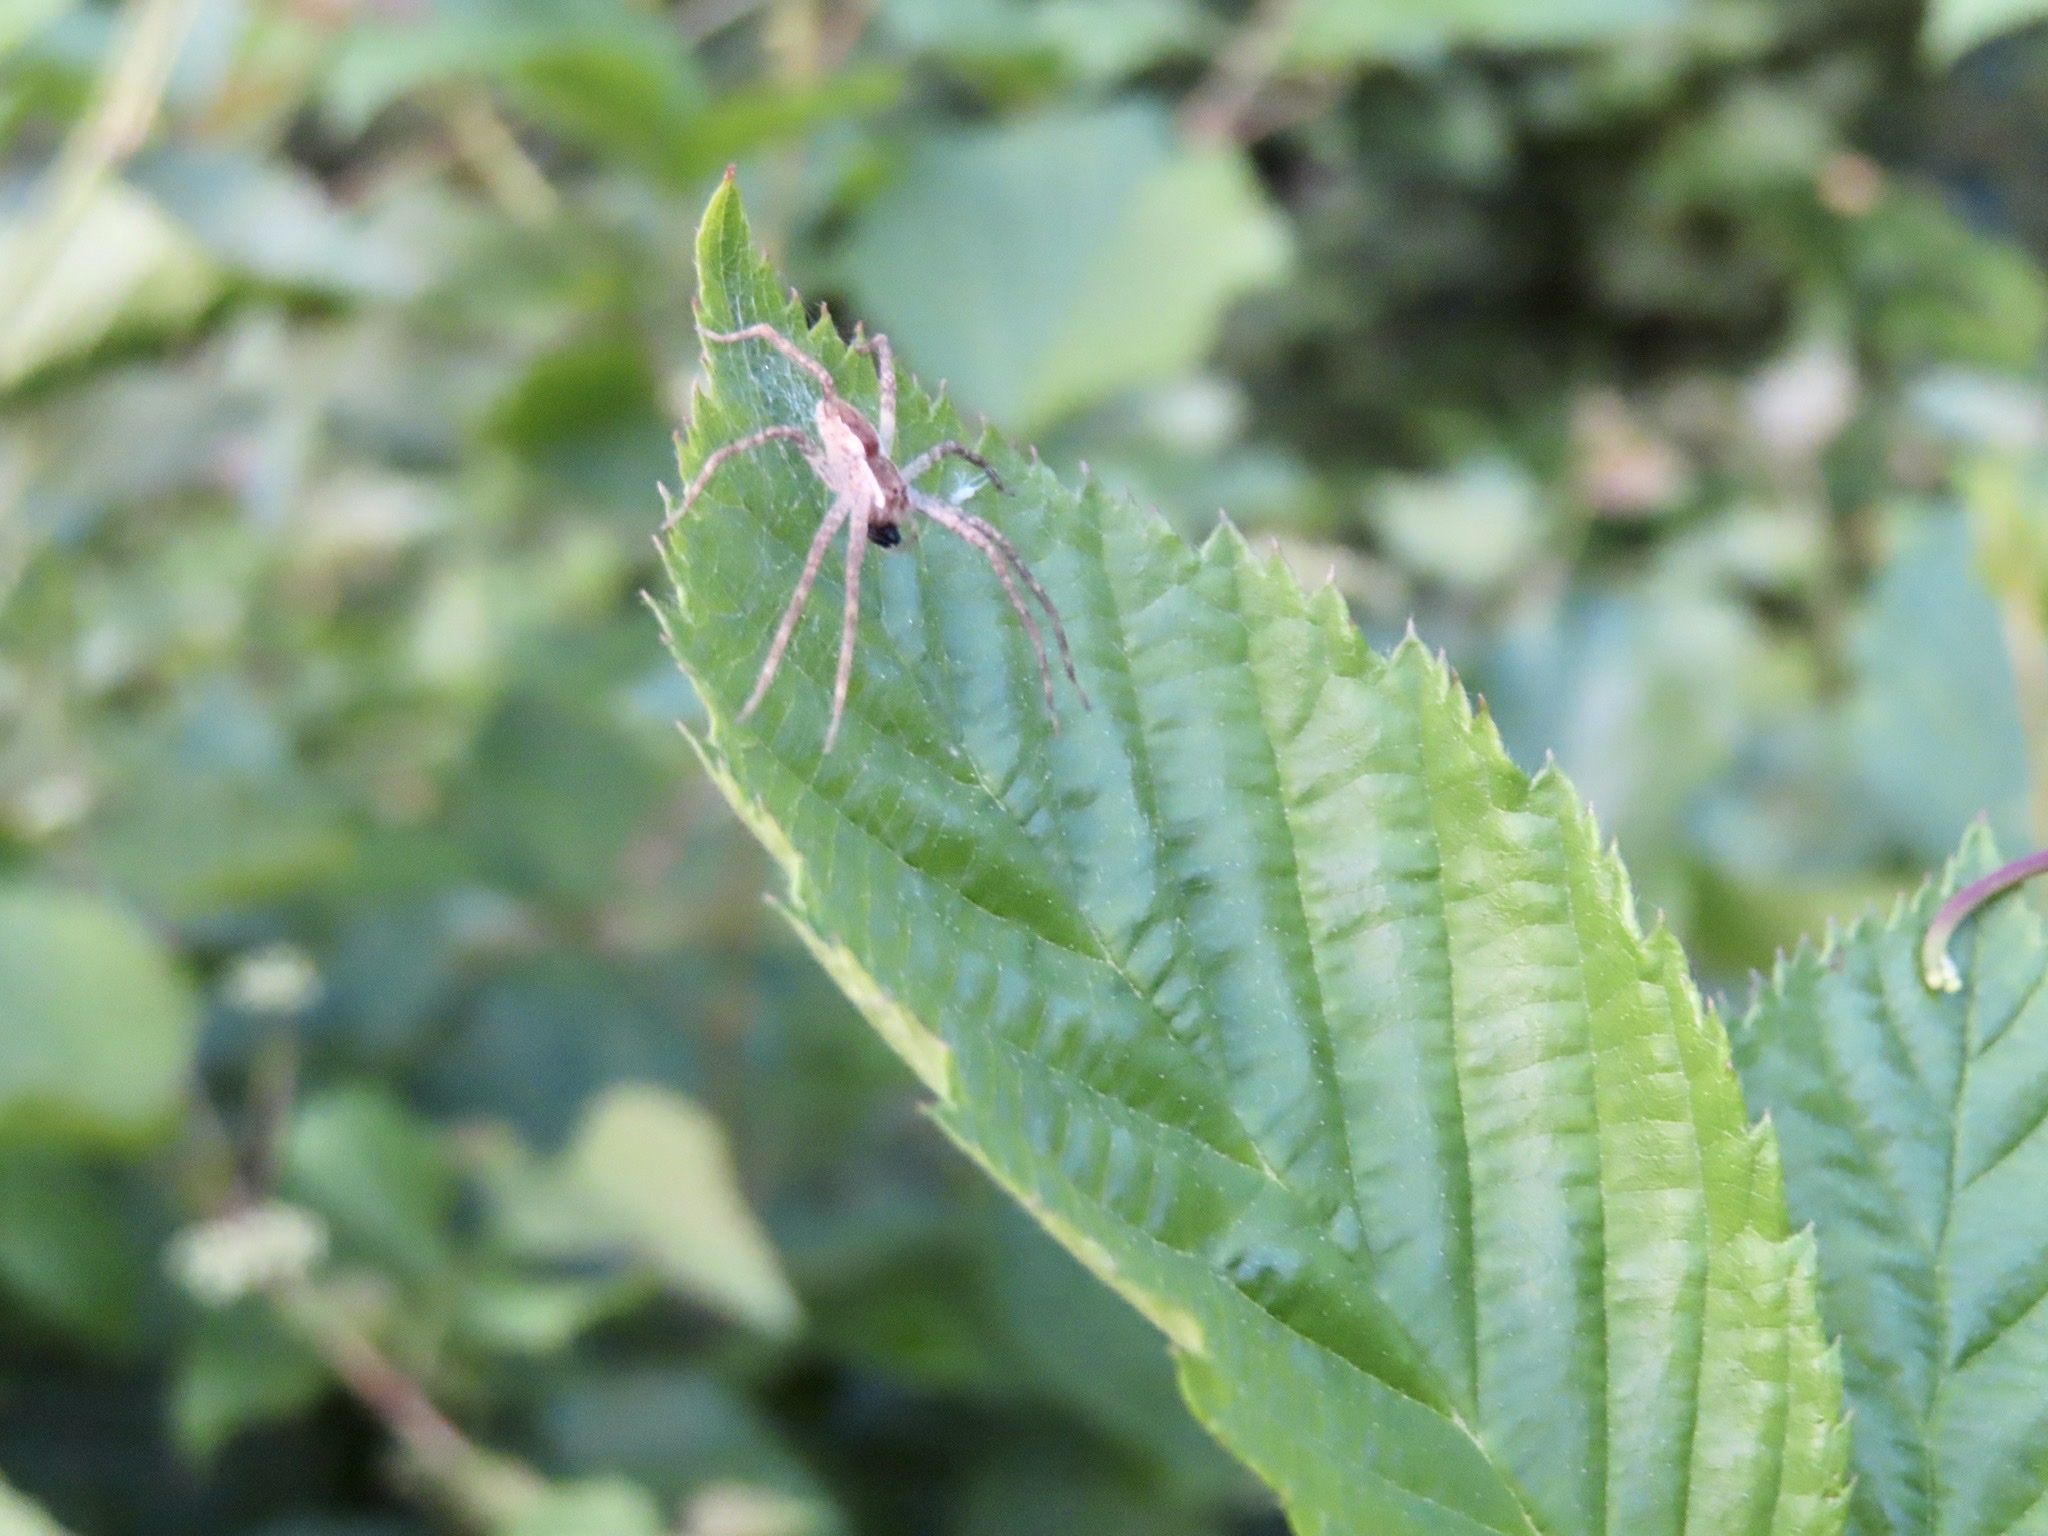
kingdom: Animalia
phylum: Arthropoda
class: Arachnida
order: Araneae
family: Pisauridae
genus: Pisaurina
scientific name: Pisaurina mira
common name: American nursery web spider
